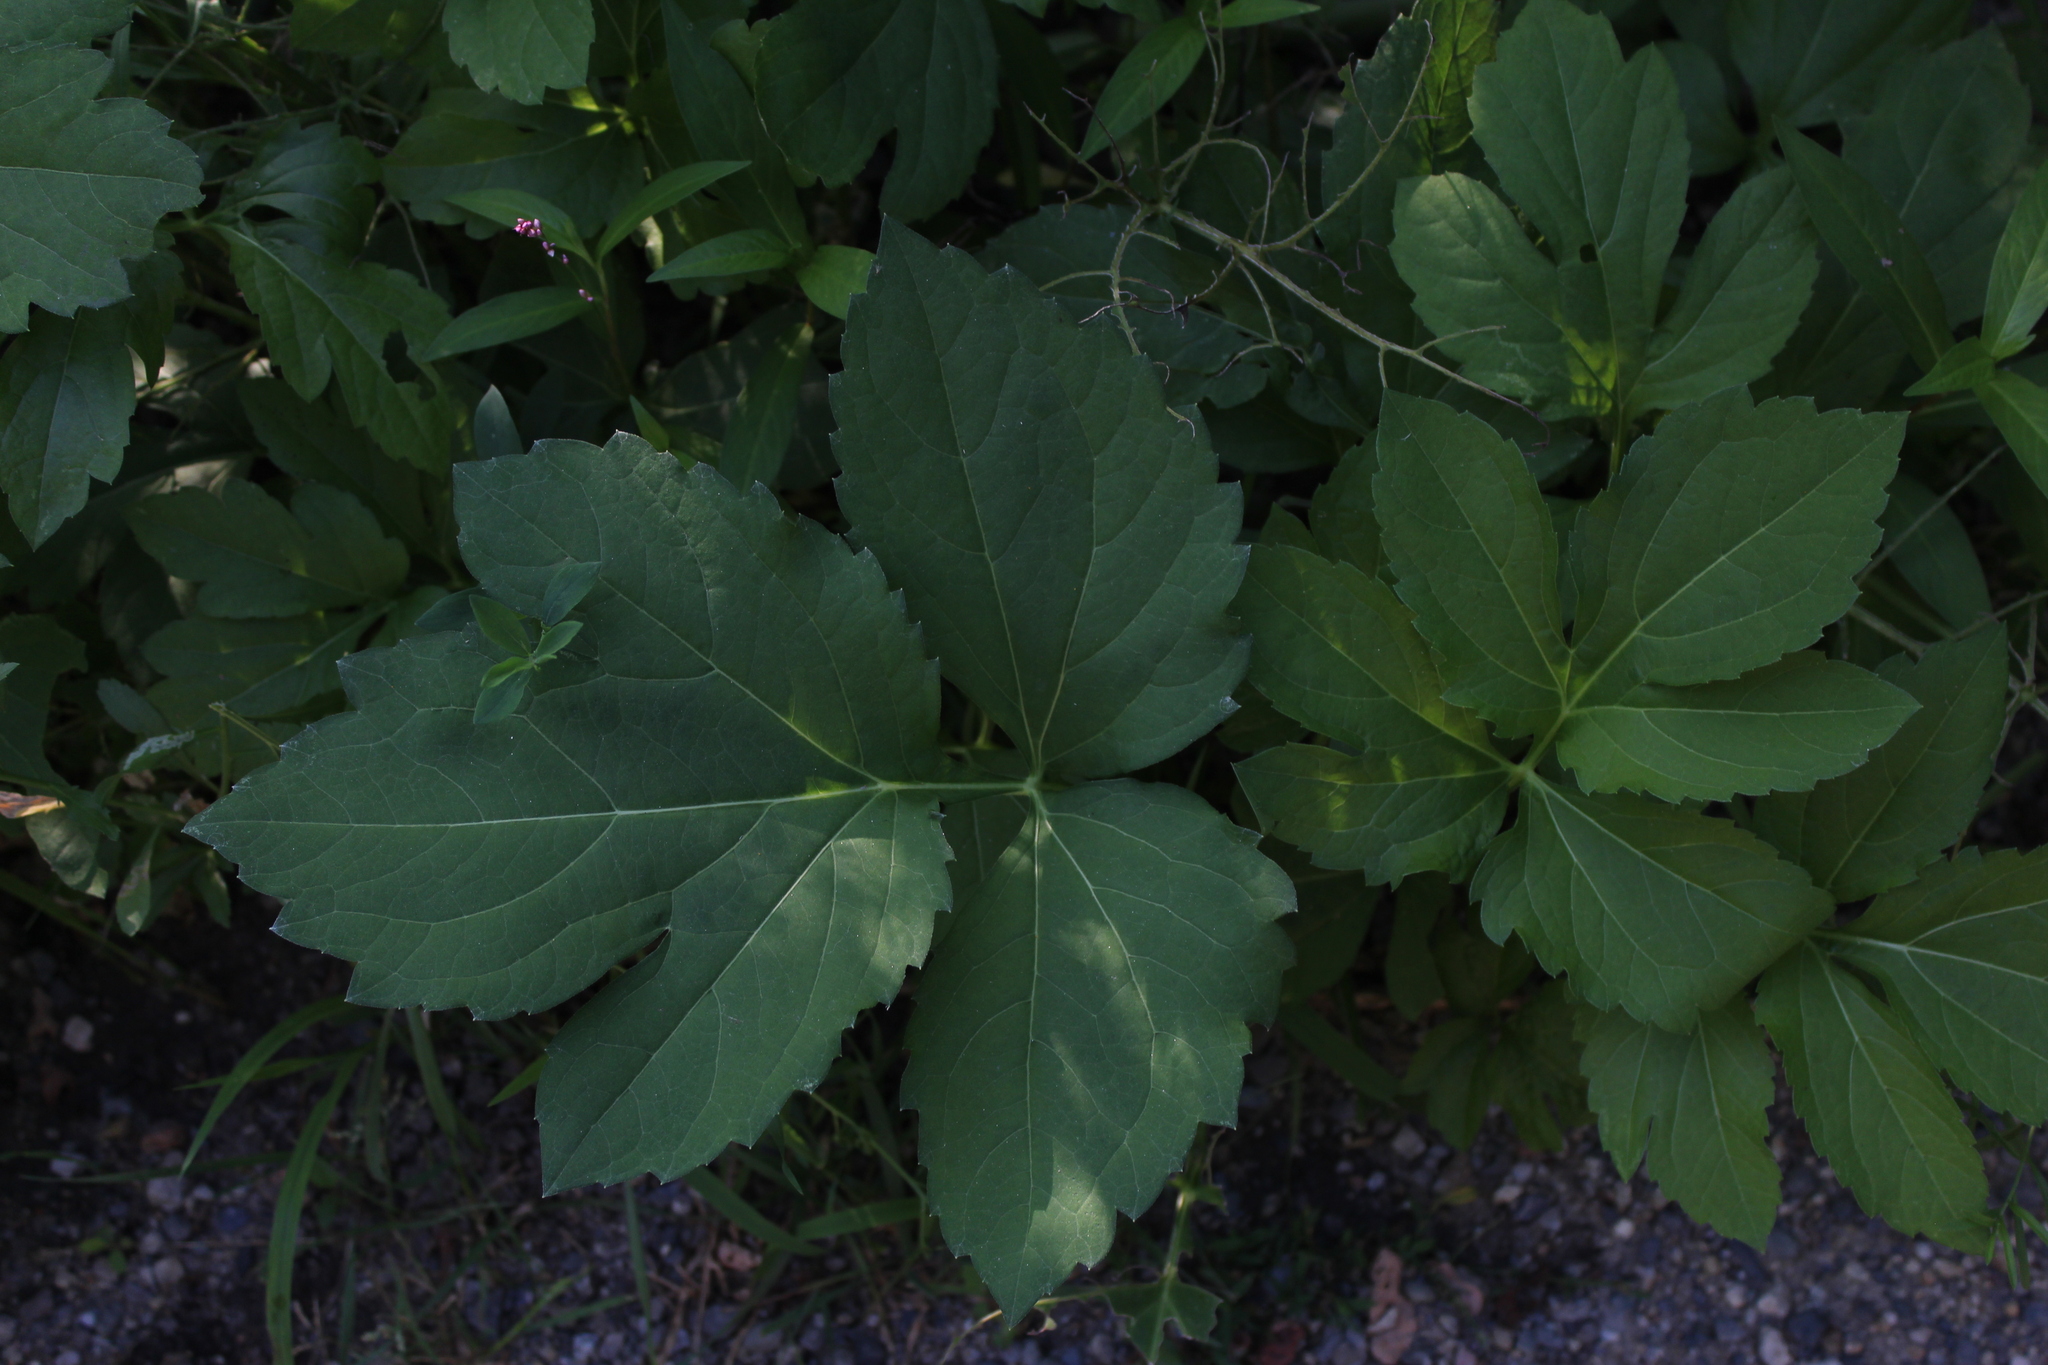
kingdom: Plantae
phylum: Tracheophyta
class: Magnoliopsida
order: Asterales
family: Asteraceae
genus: Rudbeckia
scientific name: Rudbeckia laciniata
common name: Coneflower
